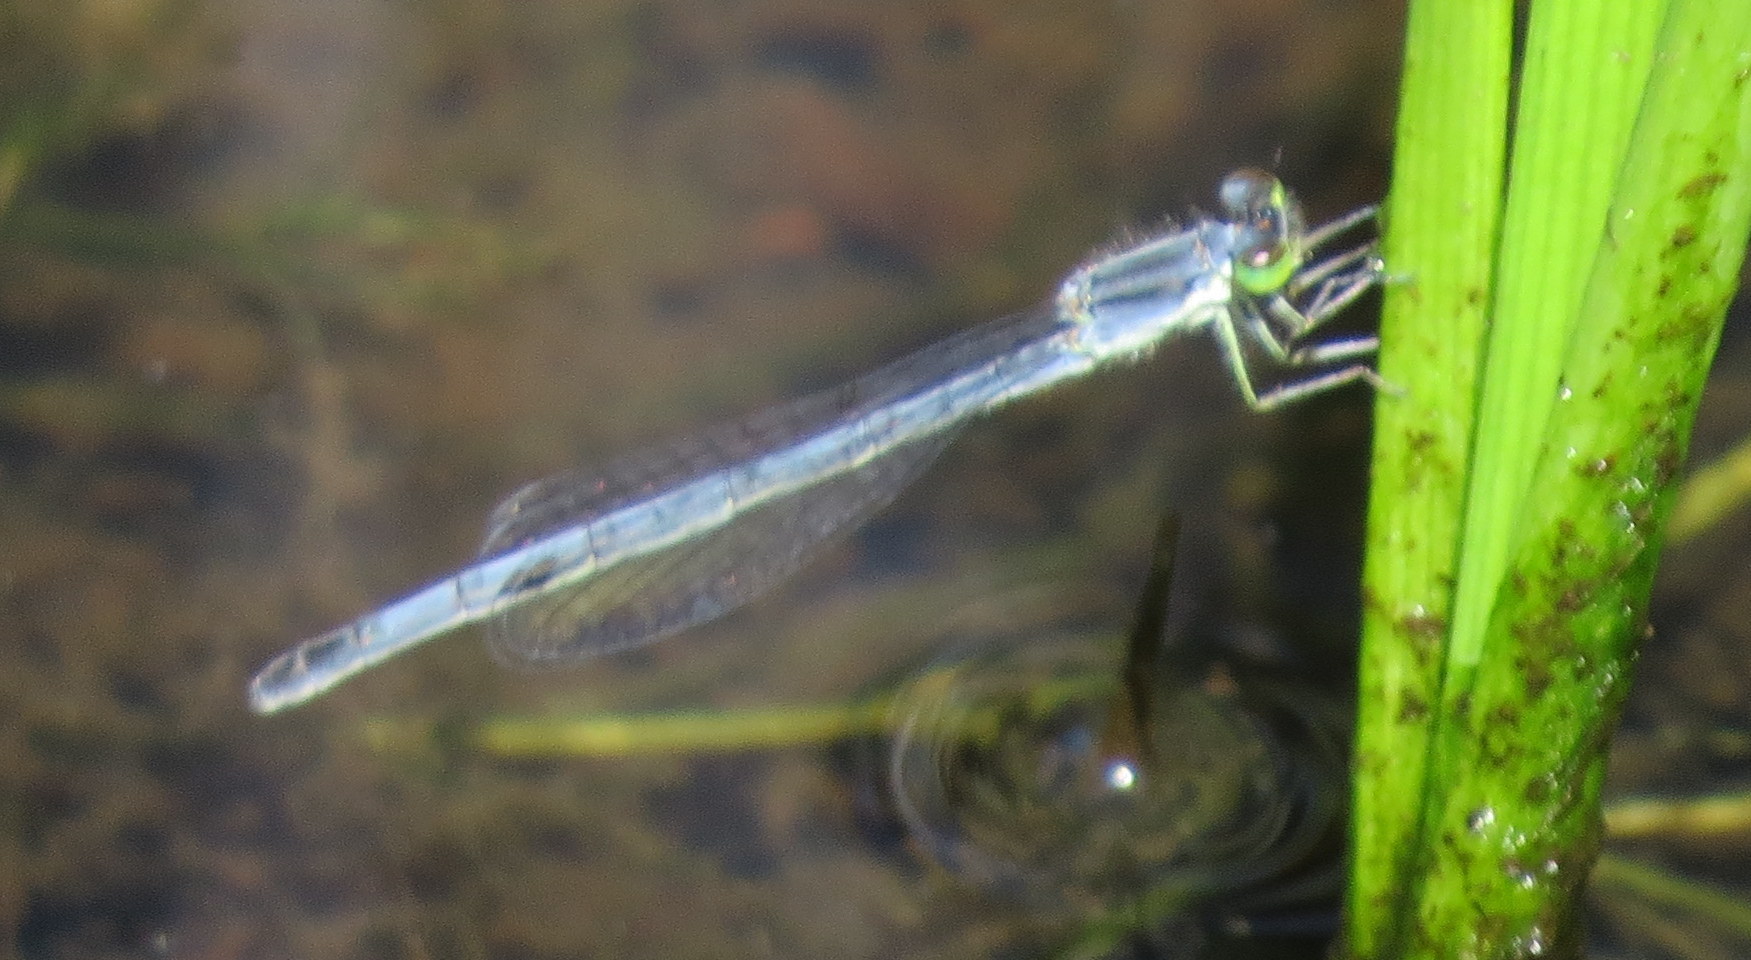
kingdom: Animalia
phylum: Arthropoda
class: Insecta
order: Odonata
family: Coenagrionidae
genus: Ischnura
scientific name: Ischnura verticalis
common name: Eastern forktail
